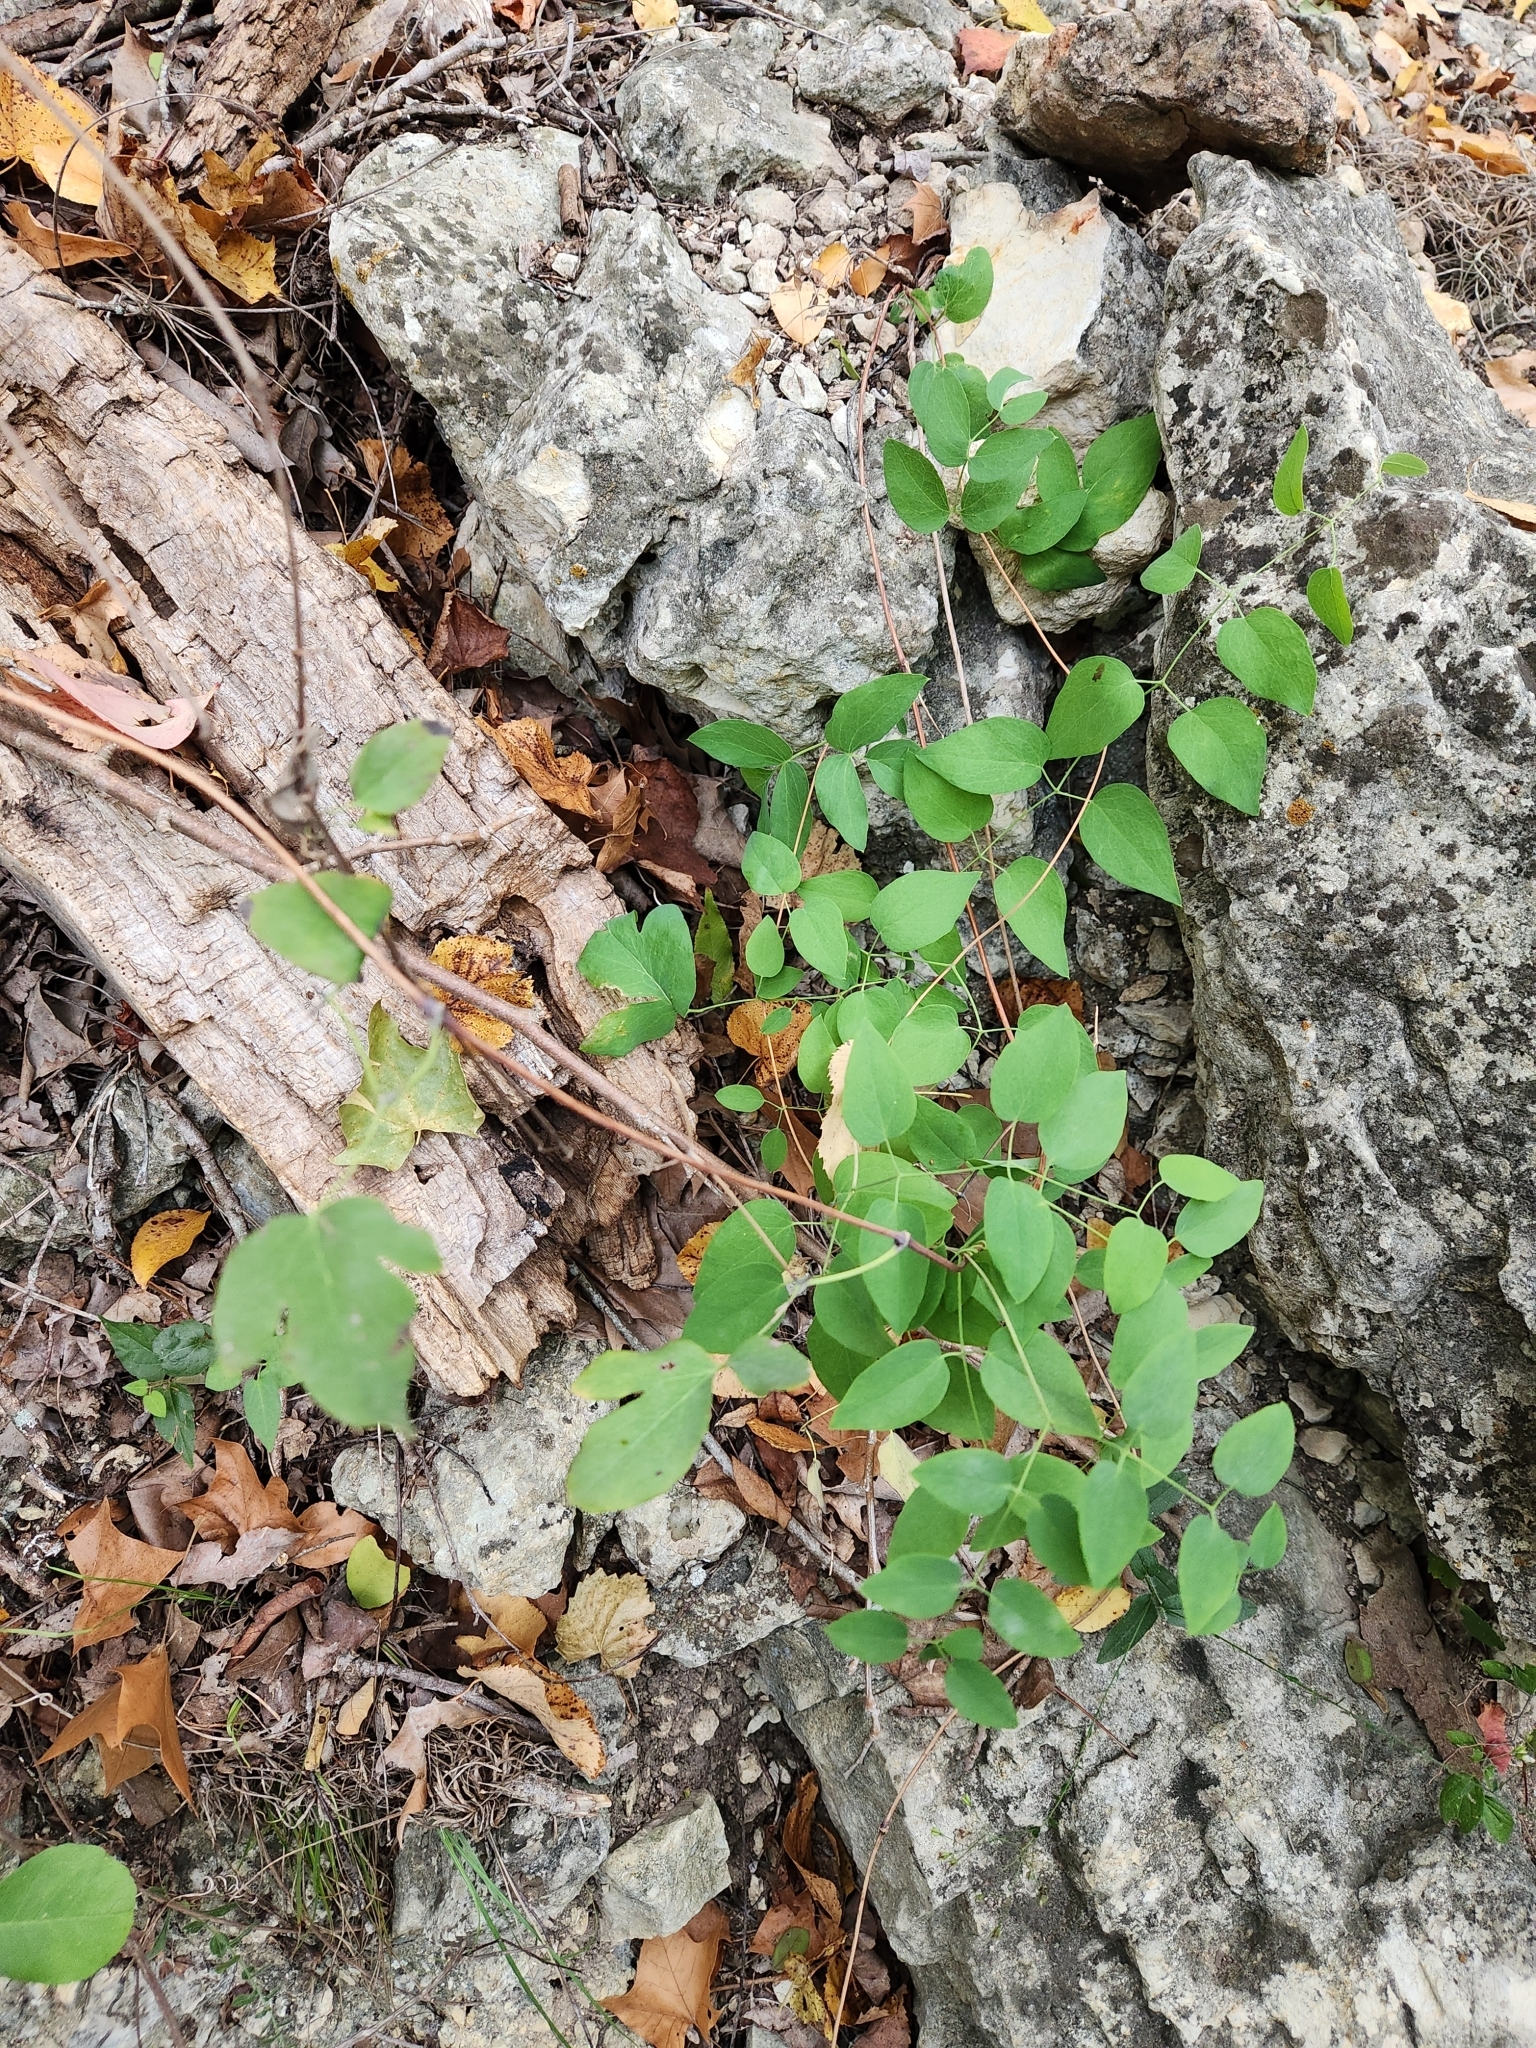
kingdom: Plantae
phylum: Tracheophyta
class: Magnoliopsida
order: Ranunculales
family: Ranunculaceae
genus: Clematis
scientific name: Clematis texensis
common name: Crimson clematis
